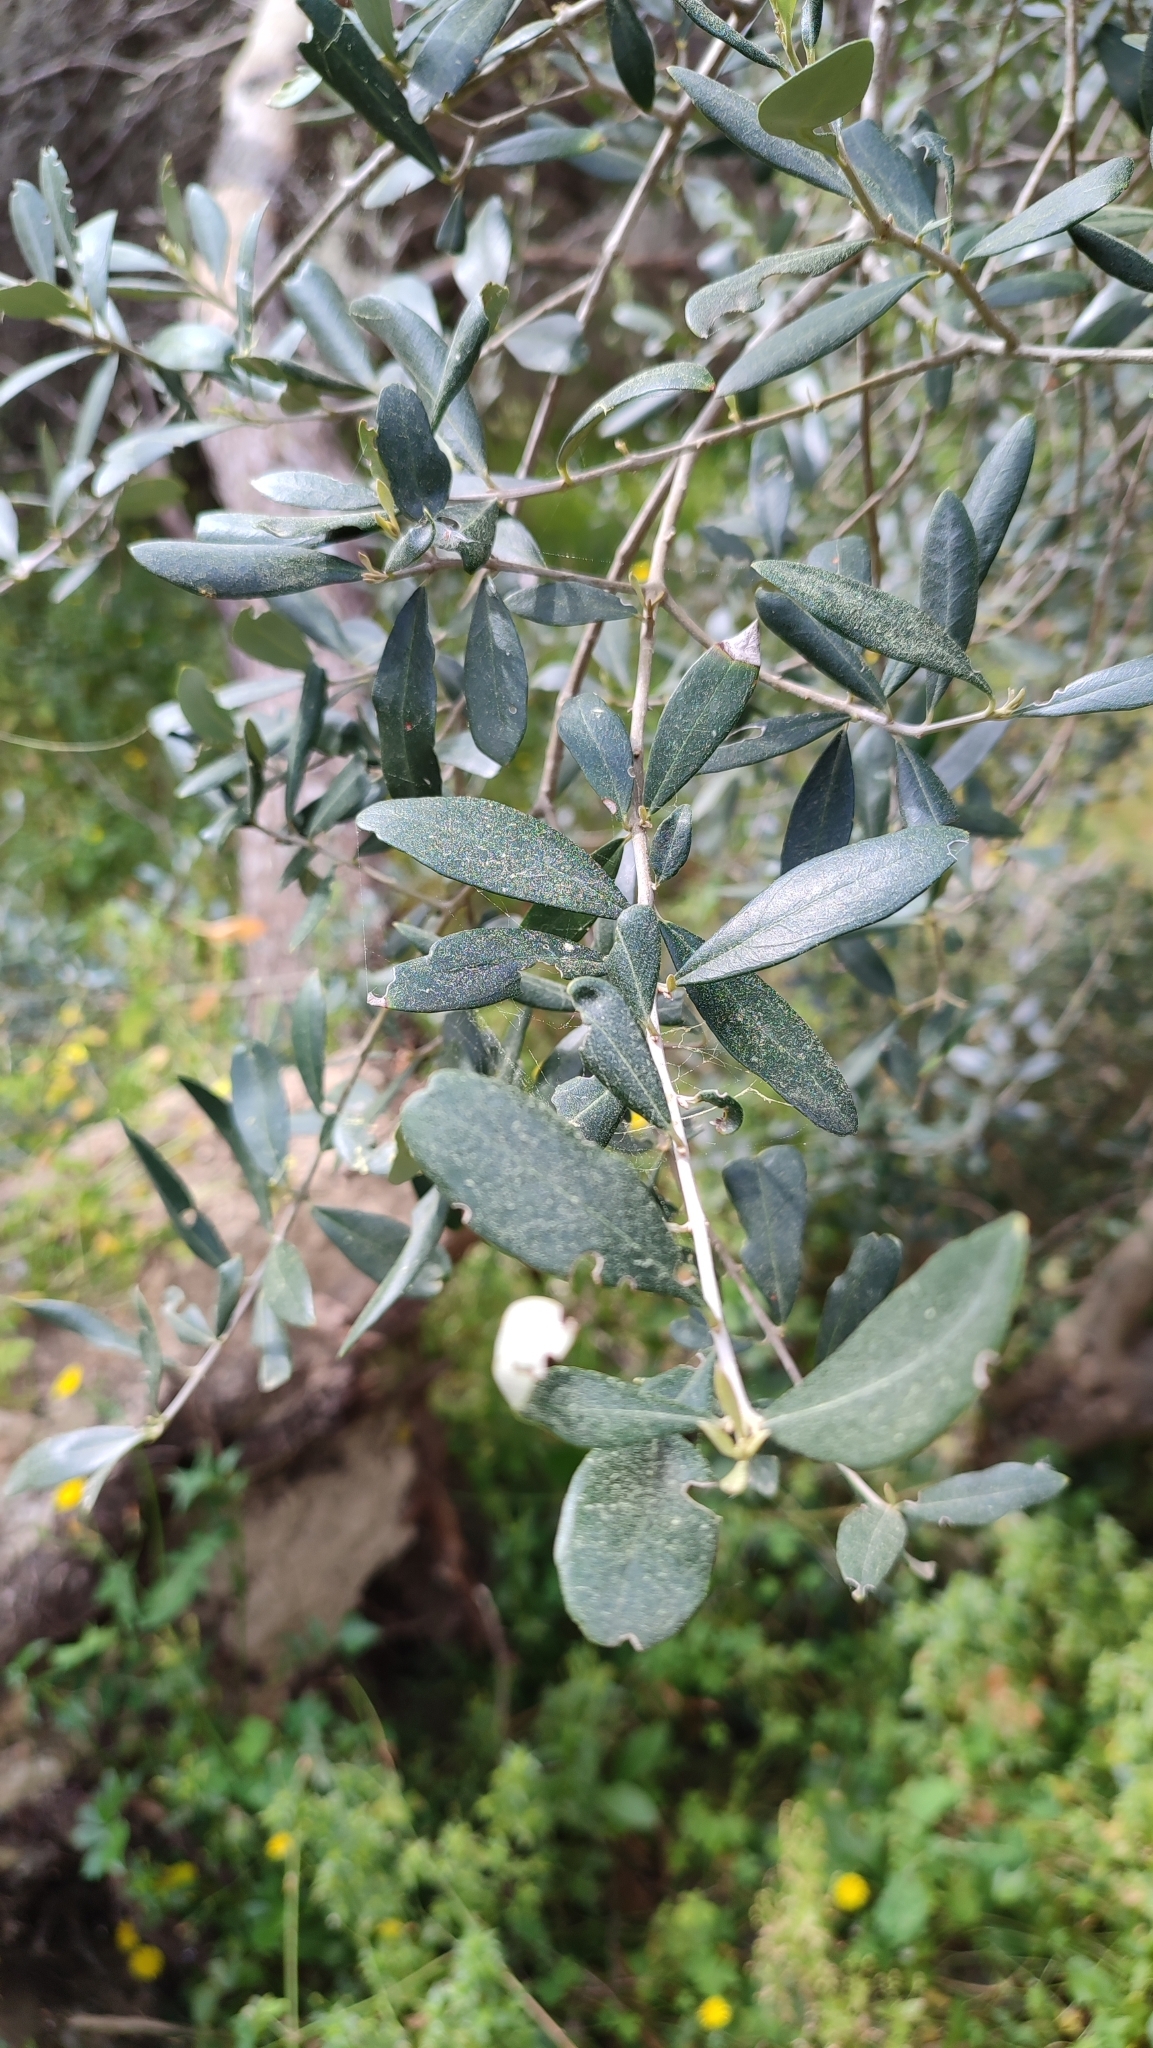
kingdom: Plantae
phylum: Tracheophyta
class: Magnoliopsida
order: Lamiales
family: Oleaceae
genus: Olea
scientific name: Olea europaea
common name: Olive
